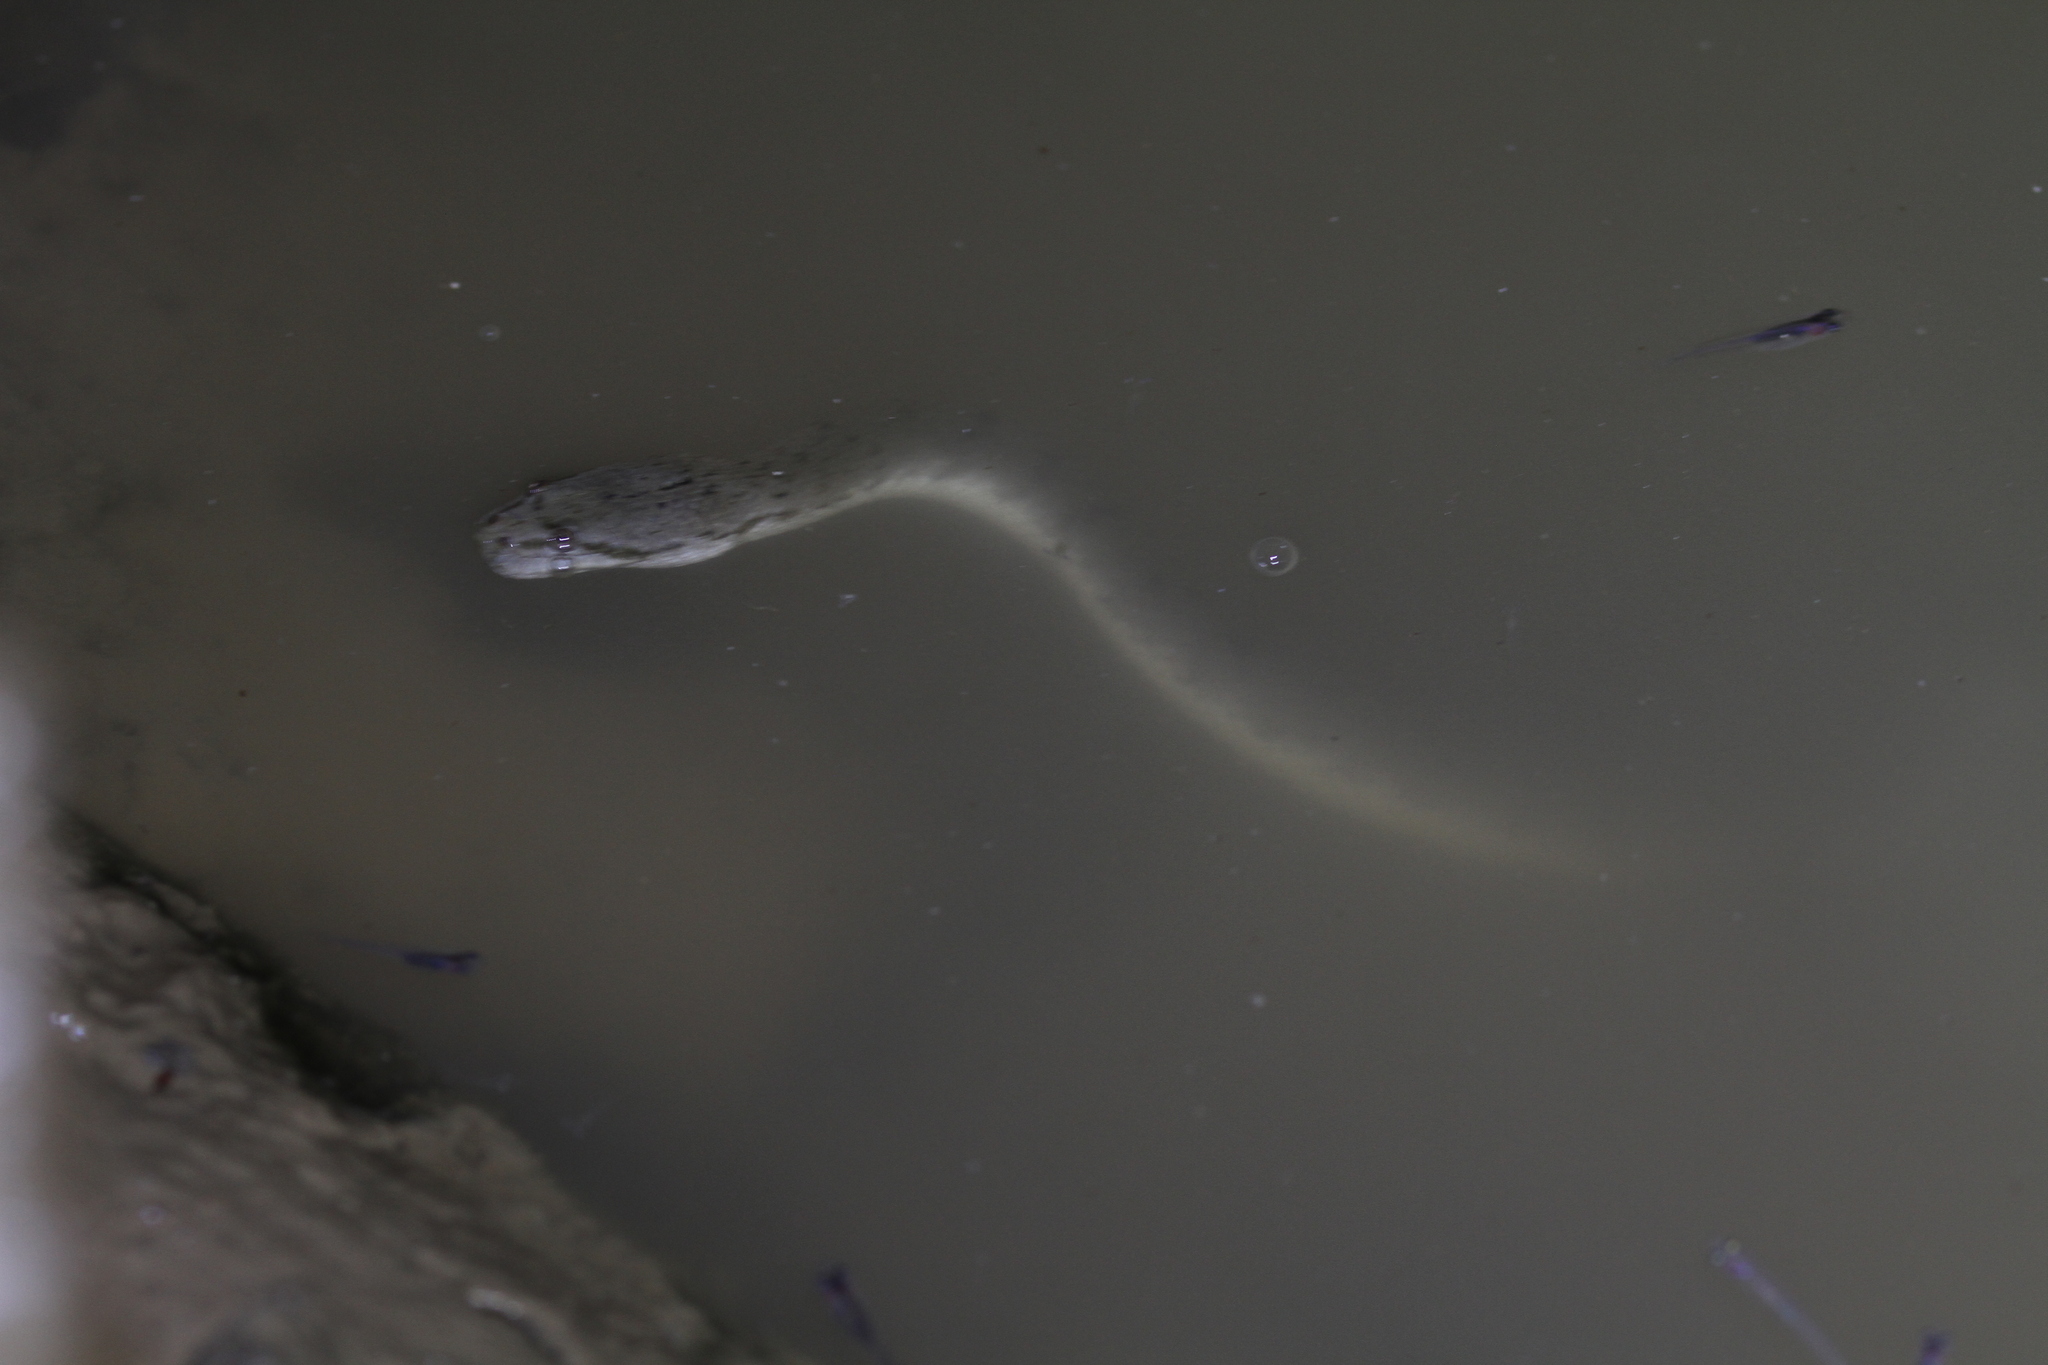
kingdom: Animalia
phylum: Chordata
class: Squamata
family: Homalopsidae
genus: Cerberus
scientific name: Cerberus schneiderii
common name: Southeast asian bockadam
